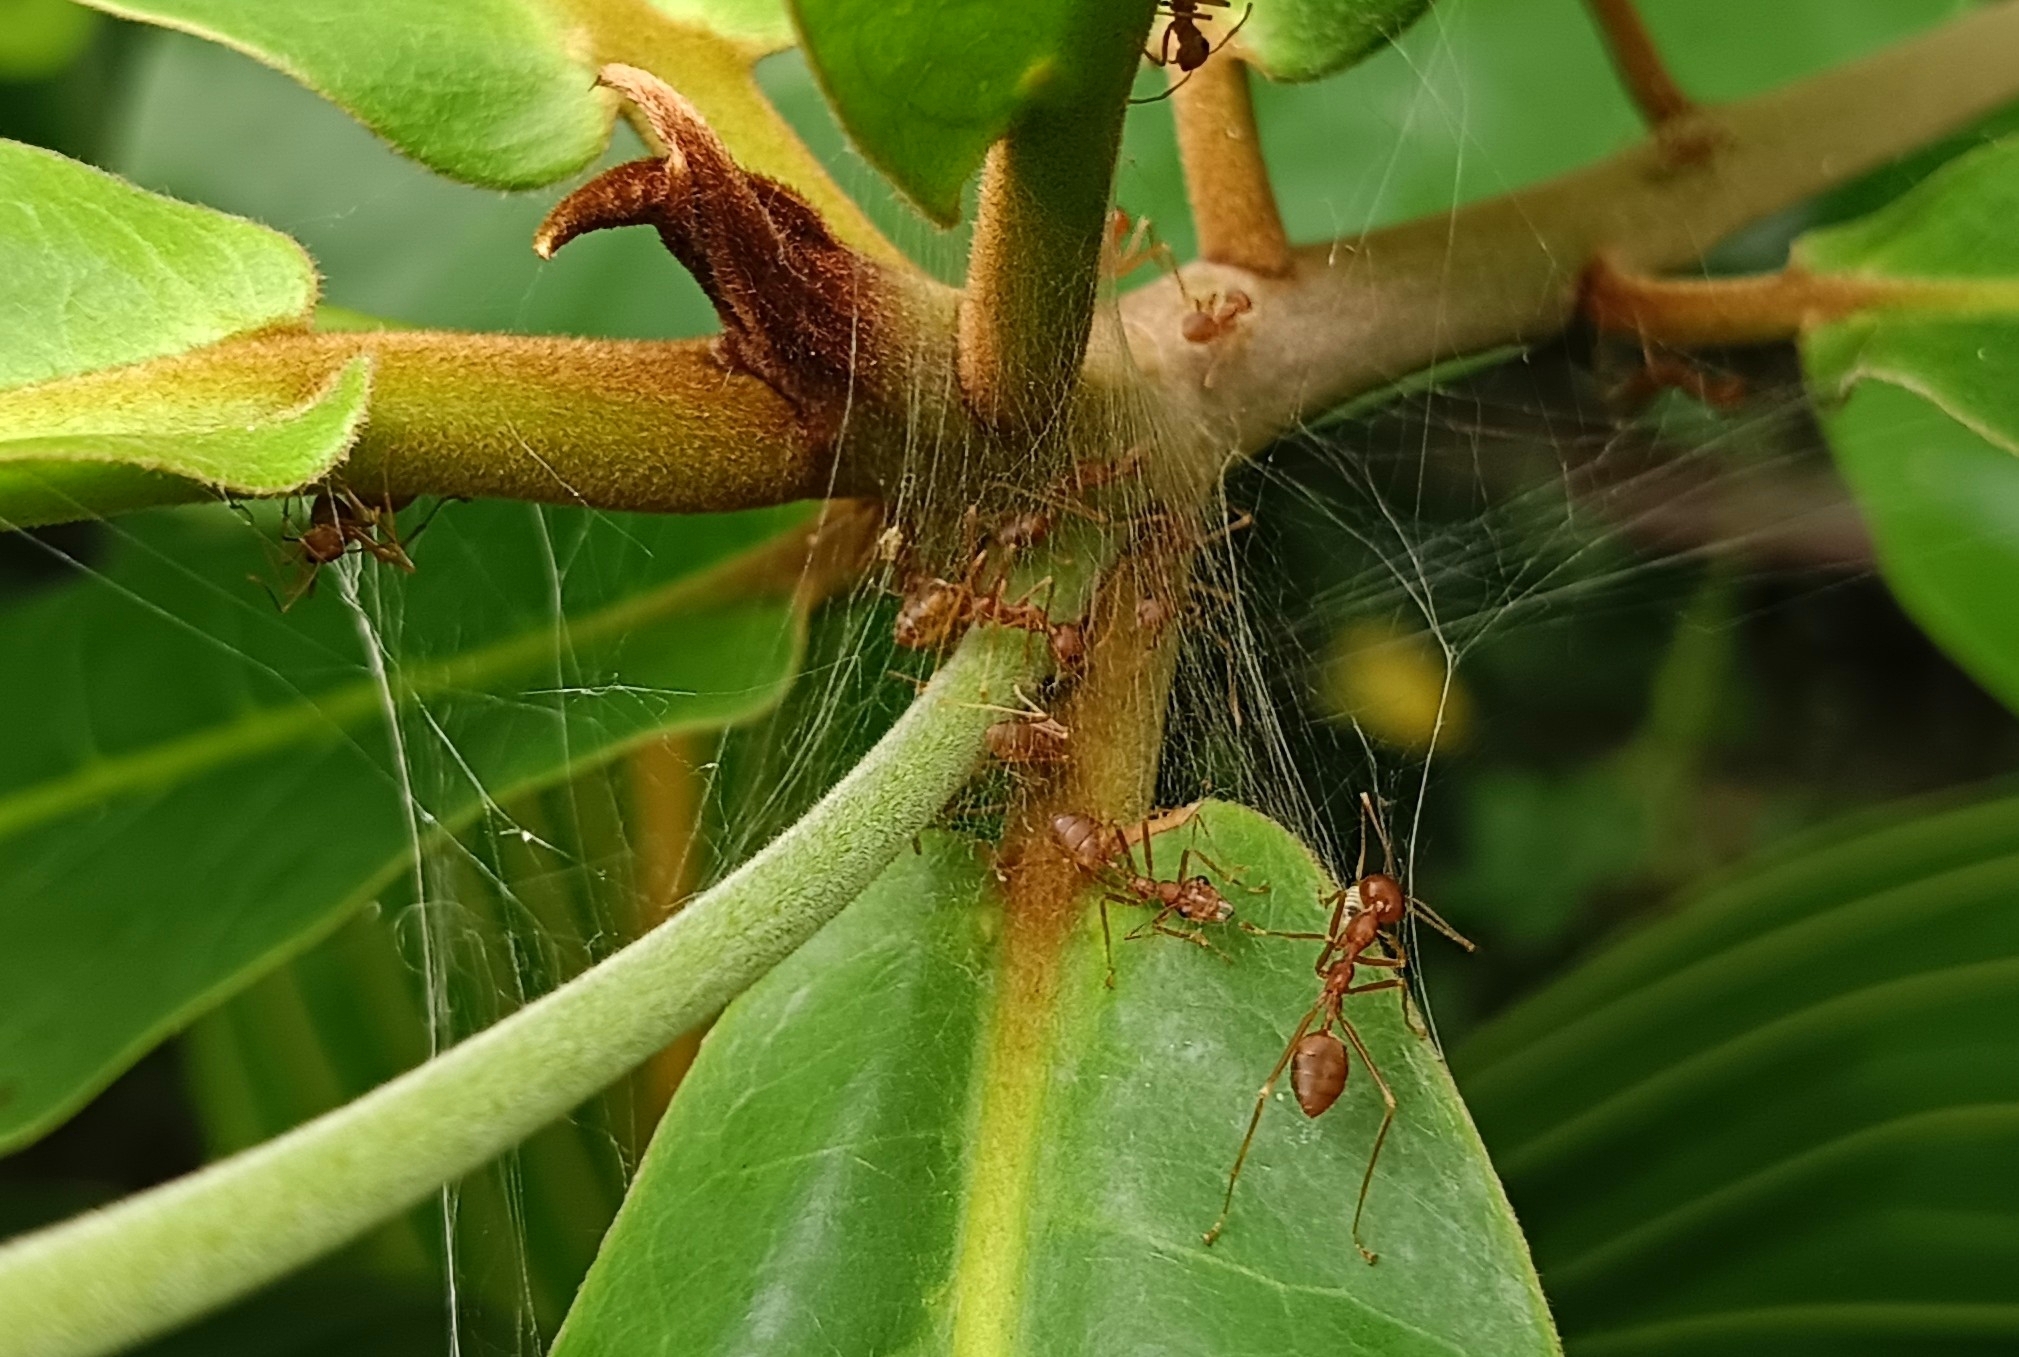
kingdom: Animalia
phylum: Arthropoda
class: Insecta
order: Hymenoptera
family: Formicidae
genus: Oecophylla
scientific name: Oecophylla smaragdina
